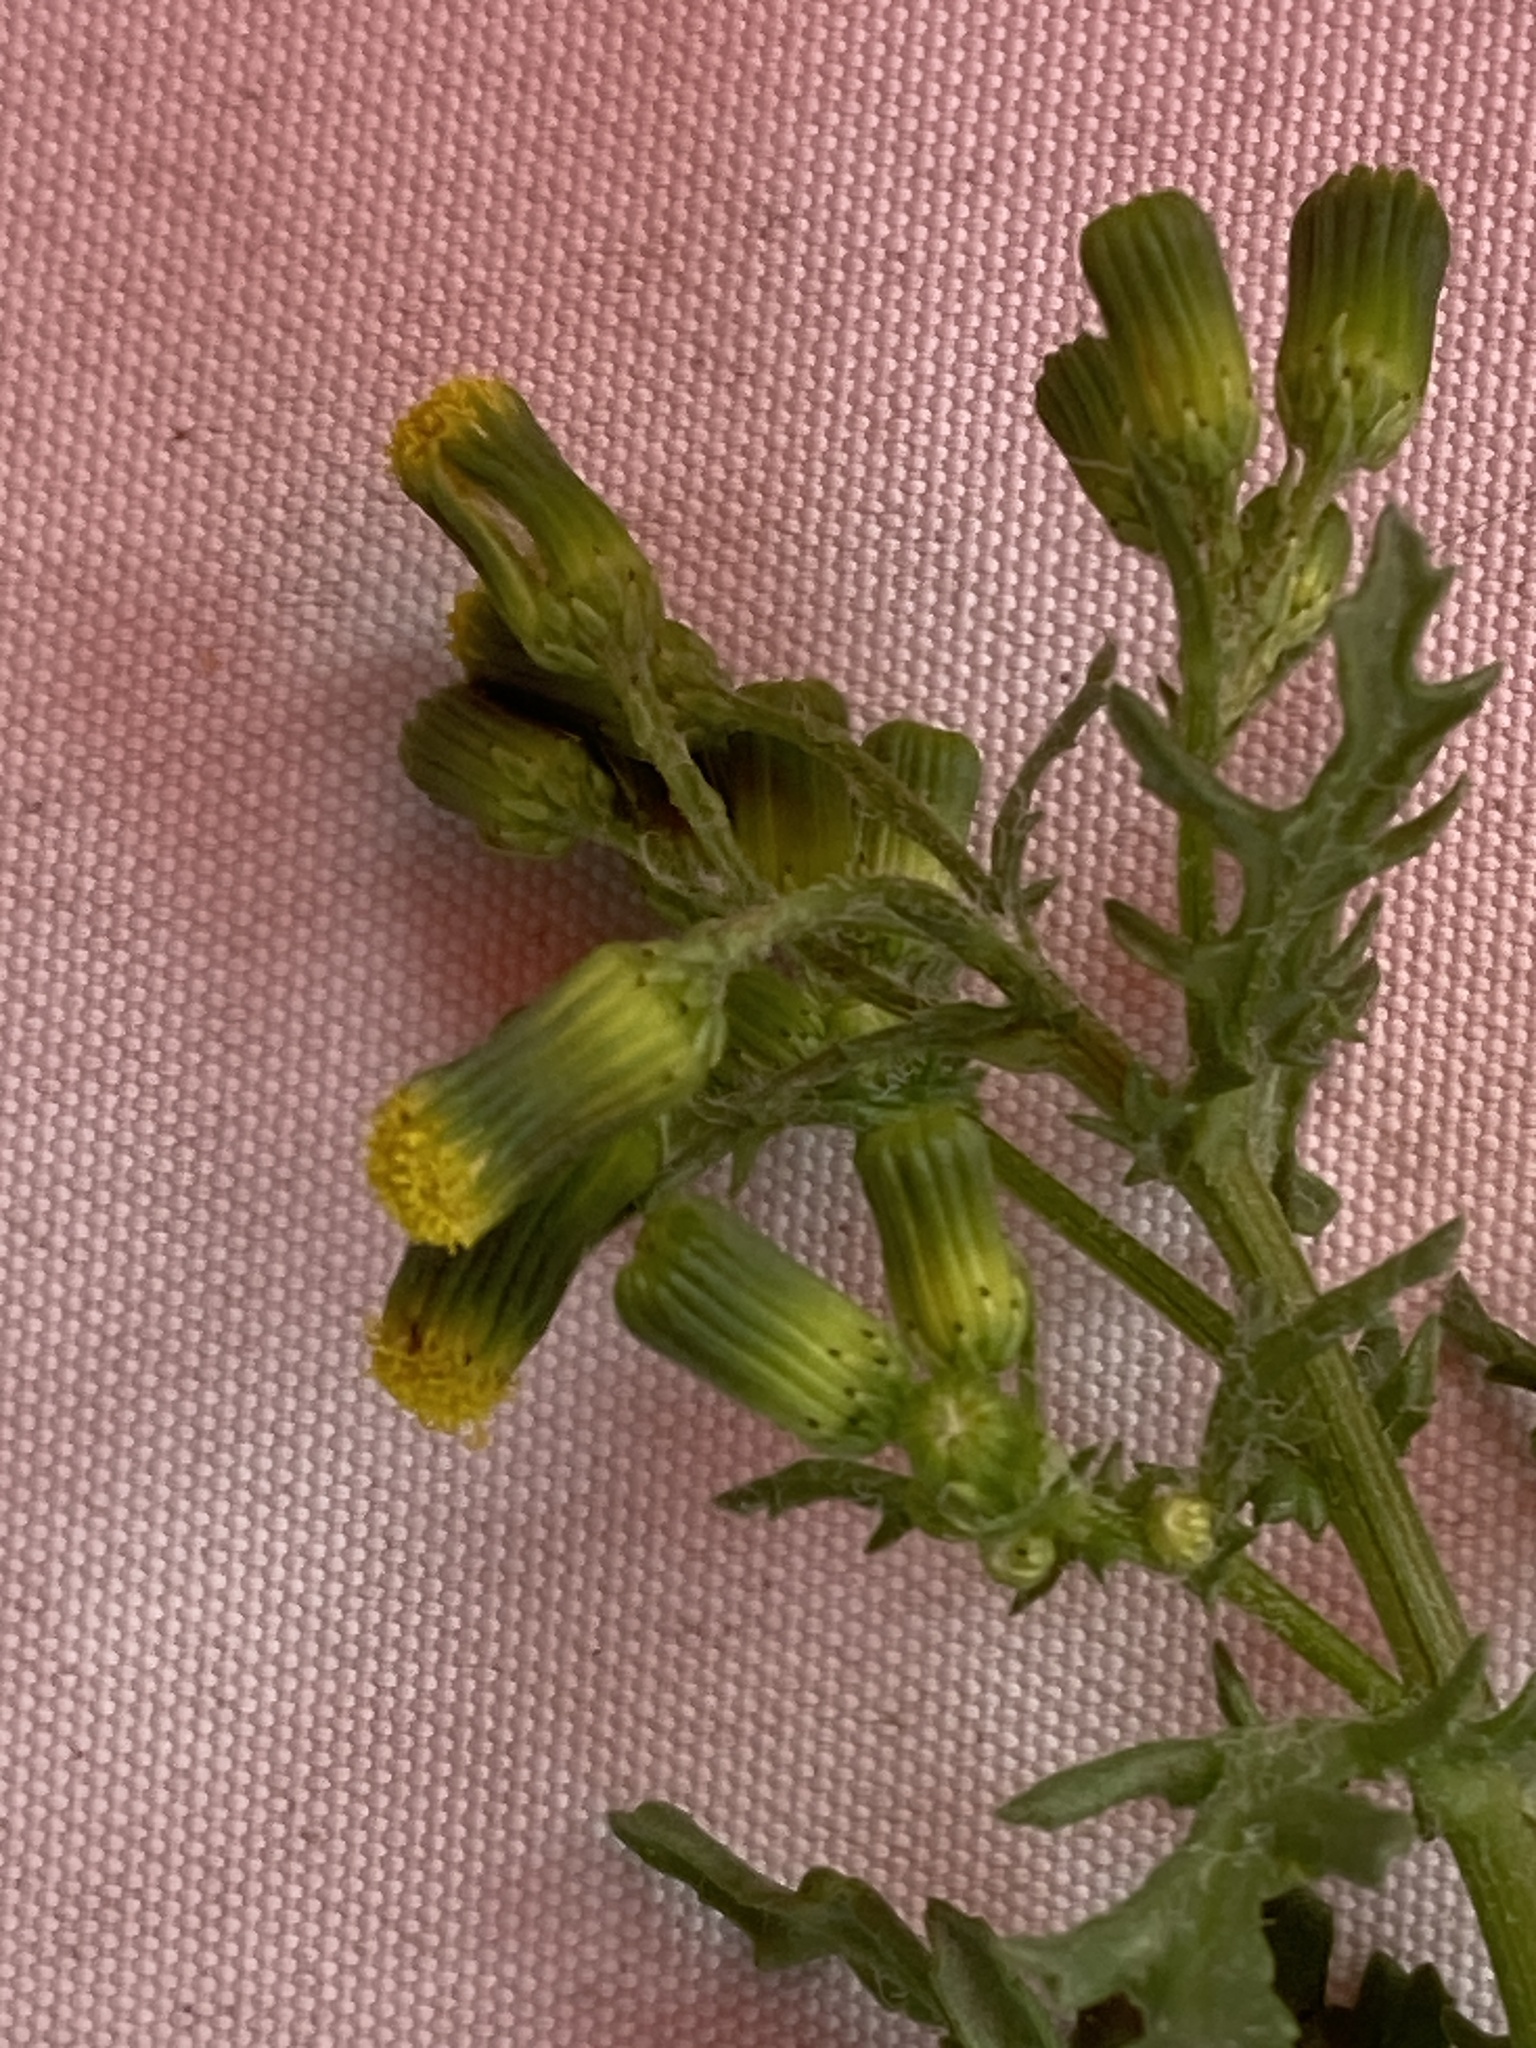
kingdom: Plantae
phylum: Tracheophyta
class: Magnoliopsida
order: Asterales
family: Asteraceae
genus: Senecio
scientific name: Senecio vulgaris
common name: Old-man-in-the-spring
